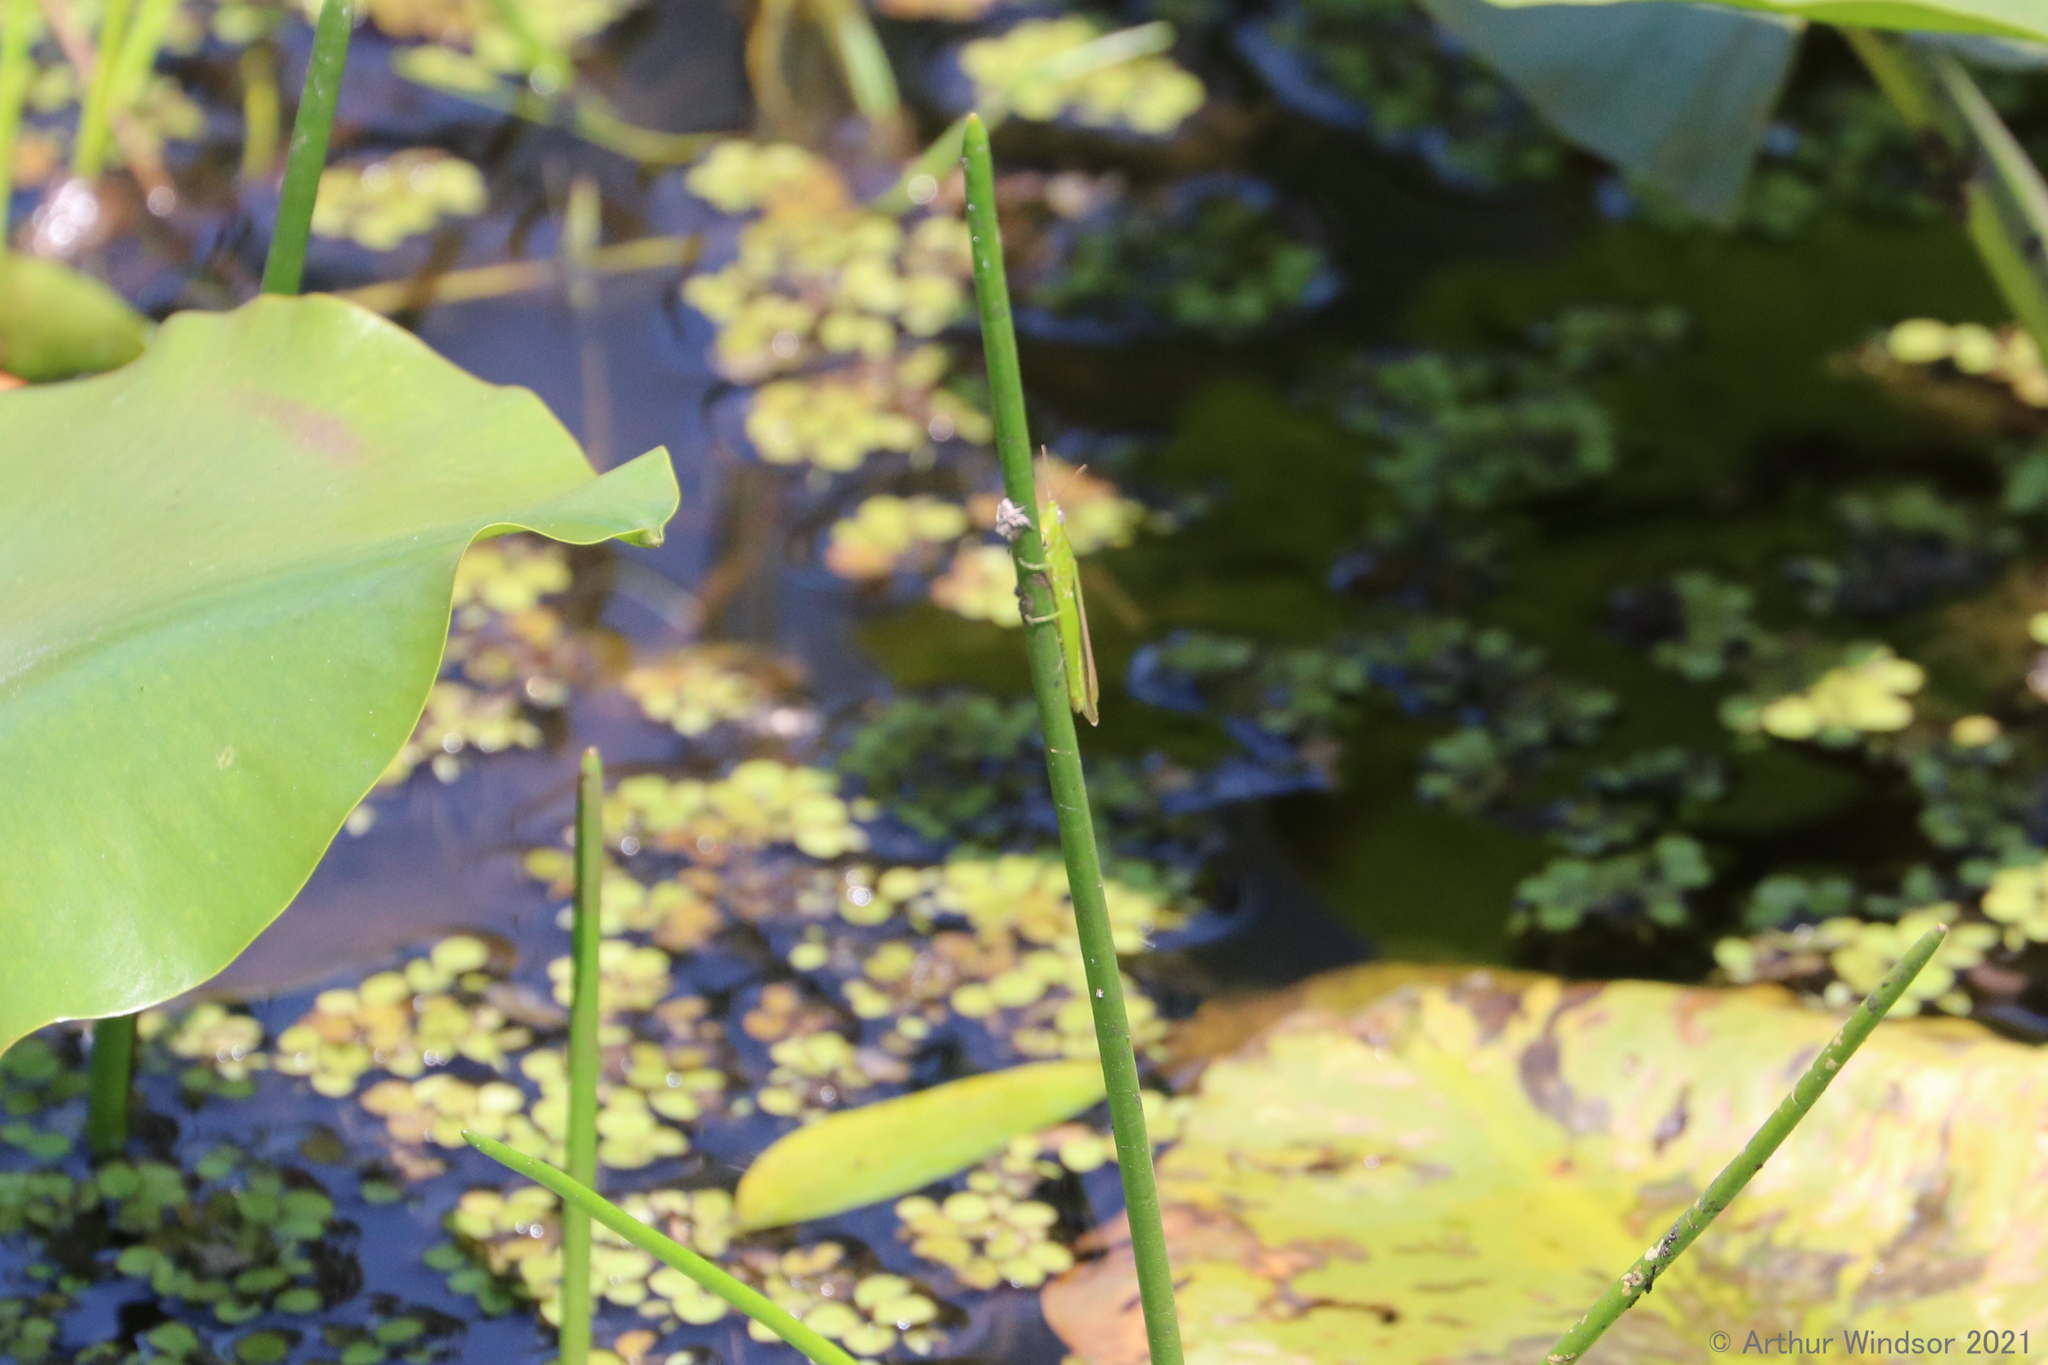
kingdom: Animalia
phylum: Arthropoda
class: Insecta
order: Orthoptera
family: Acrididae
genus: Stenacris
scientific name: Stenacris vitreipennis
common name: Glassy-winged toothpick grasshopper
